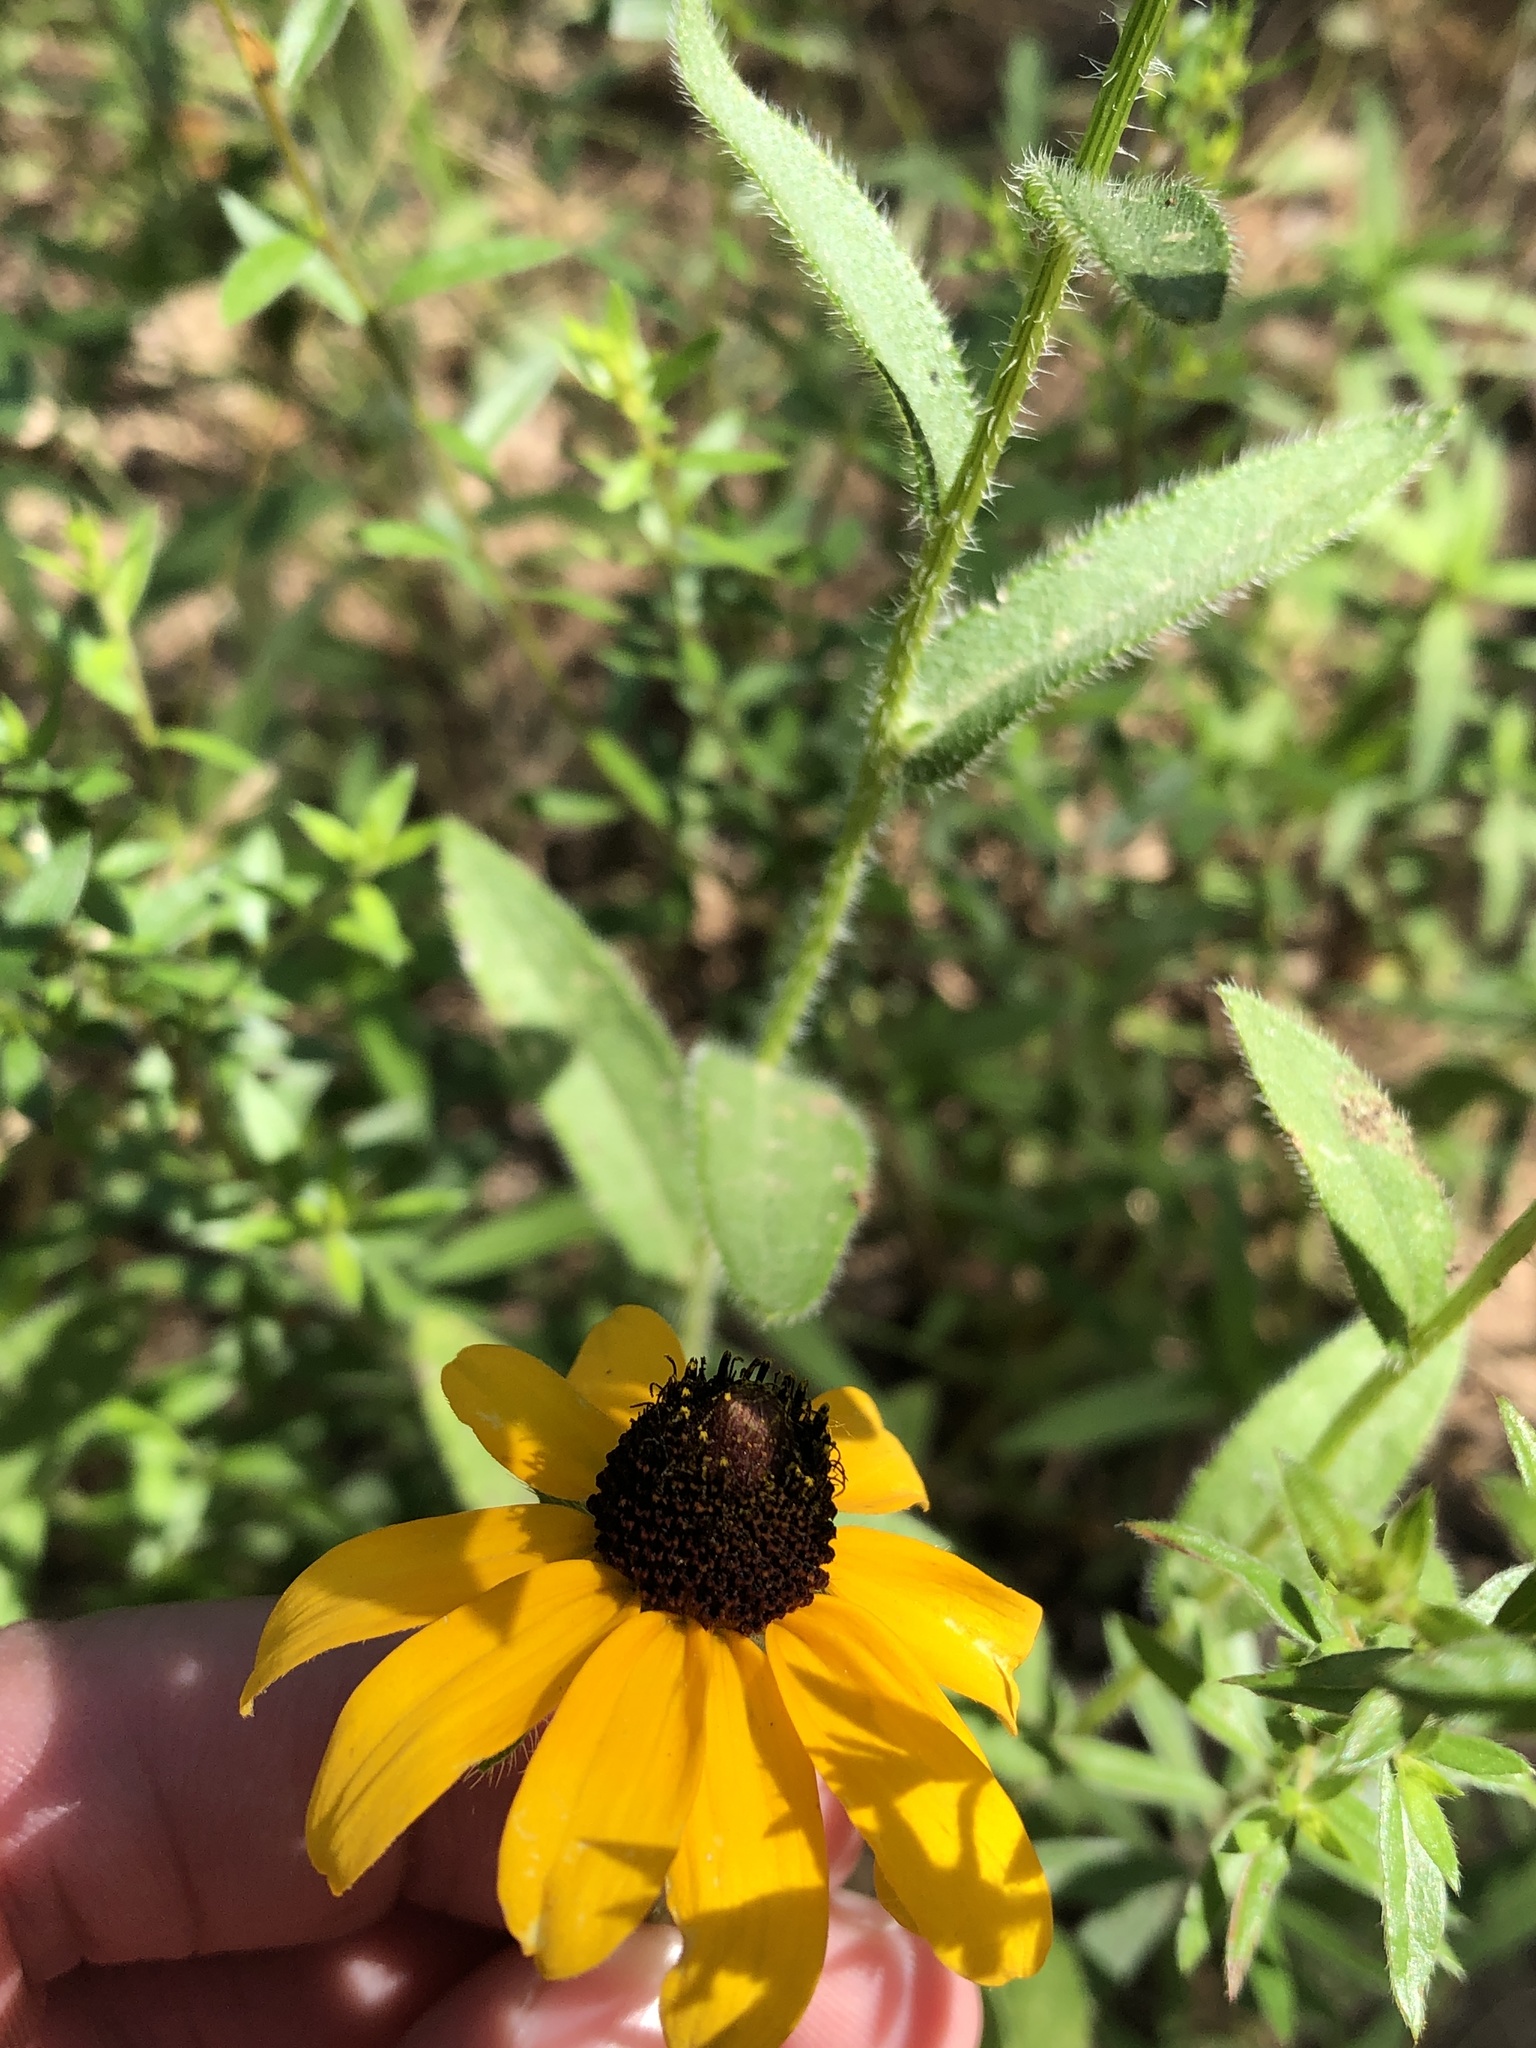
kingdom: Plantae
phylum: Tracheophyta
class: Magnoliopsida
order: Asterales
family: Asteraceae
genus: Rudbeckia
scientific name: Rudbeckia hirta
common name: Black-eyed-susan
